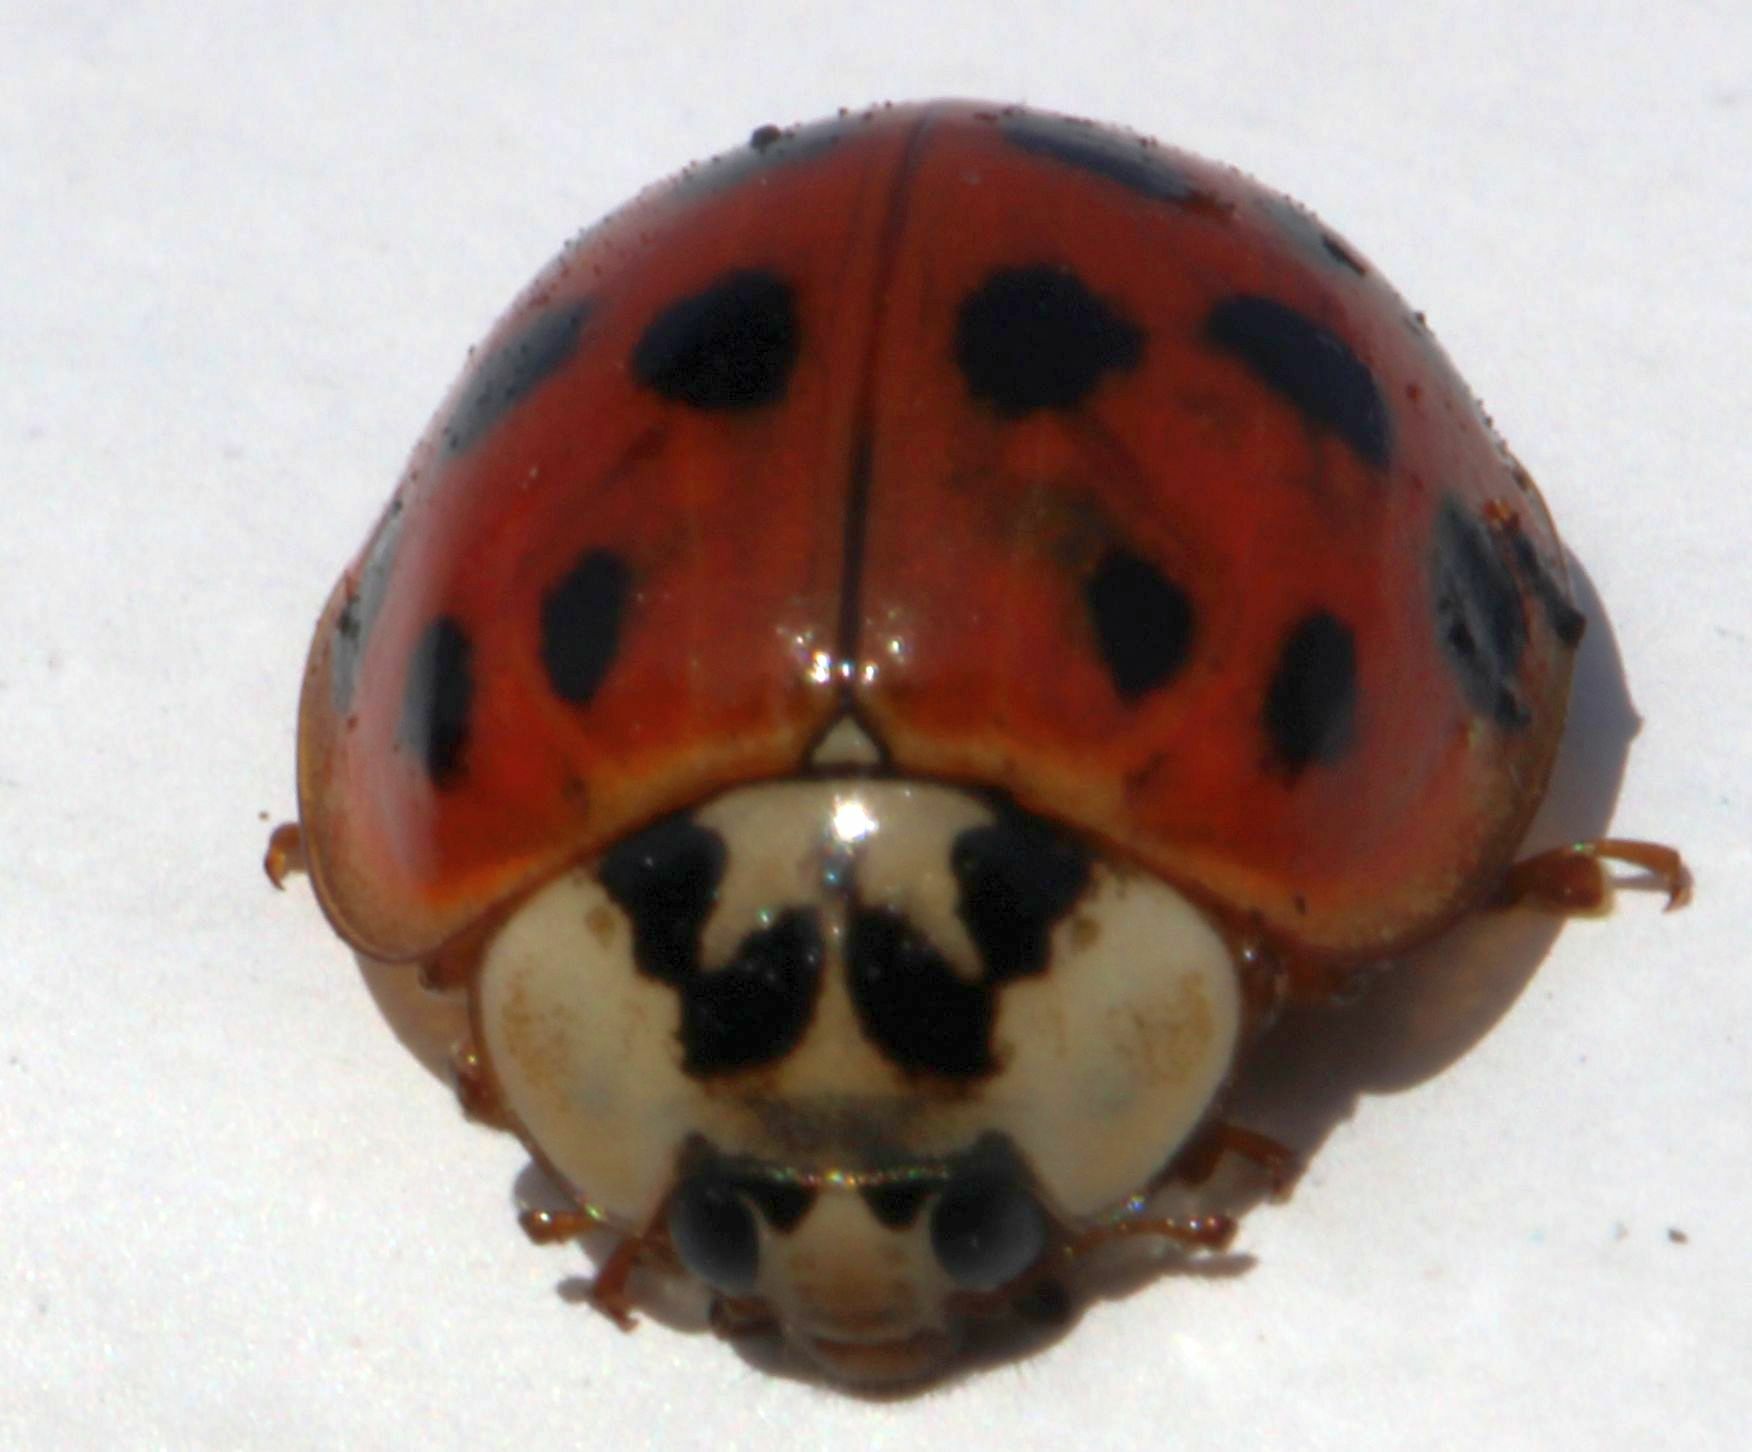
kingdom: Animalia
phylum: Arthropoda
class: Insecta
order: Coleoptera
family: Coccinellidae
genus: Harmonia
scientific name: Harmonia axyridis
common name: Harlequin ladybird
